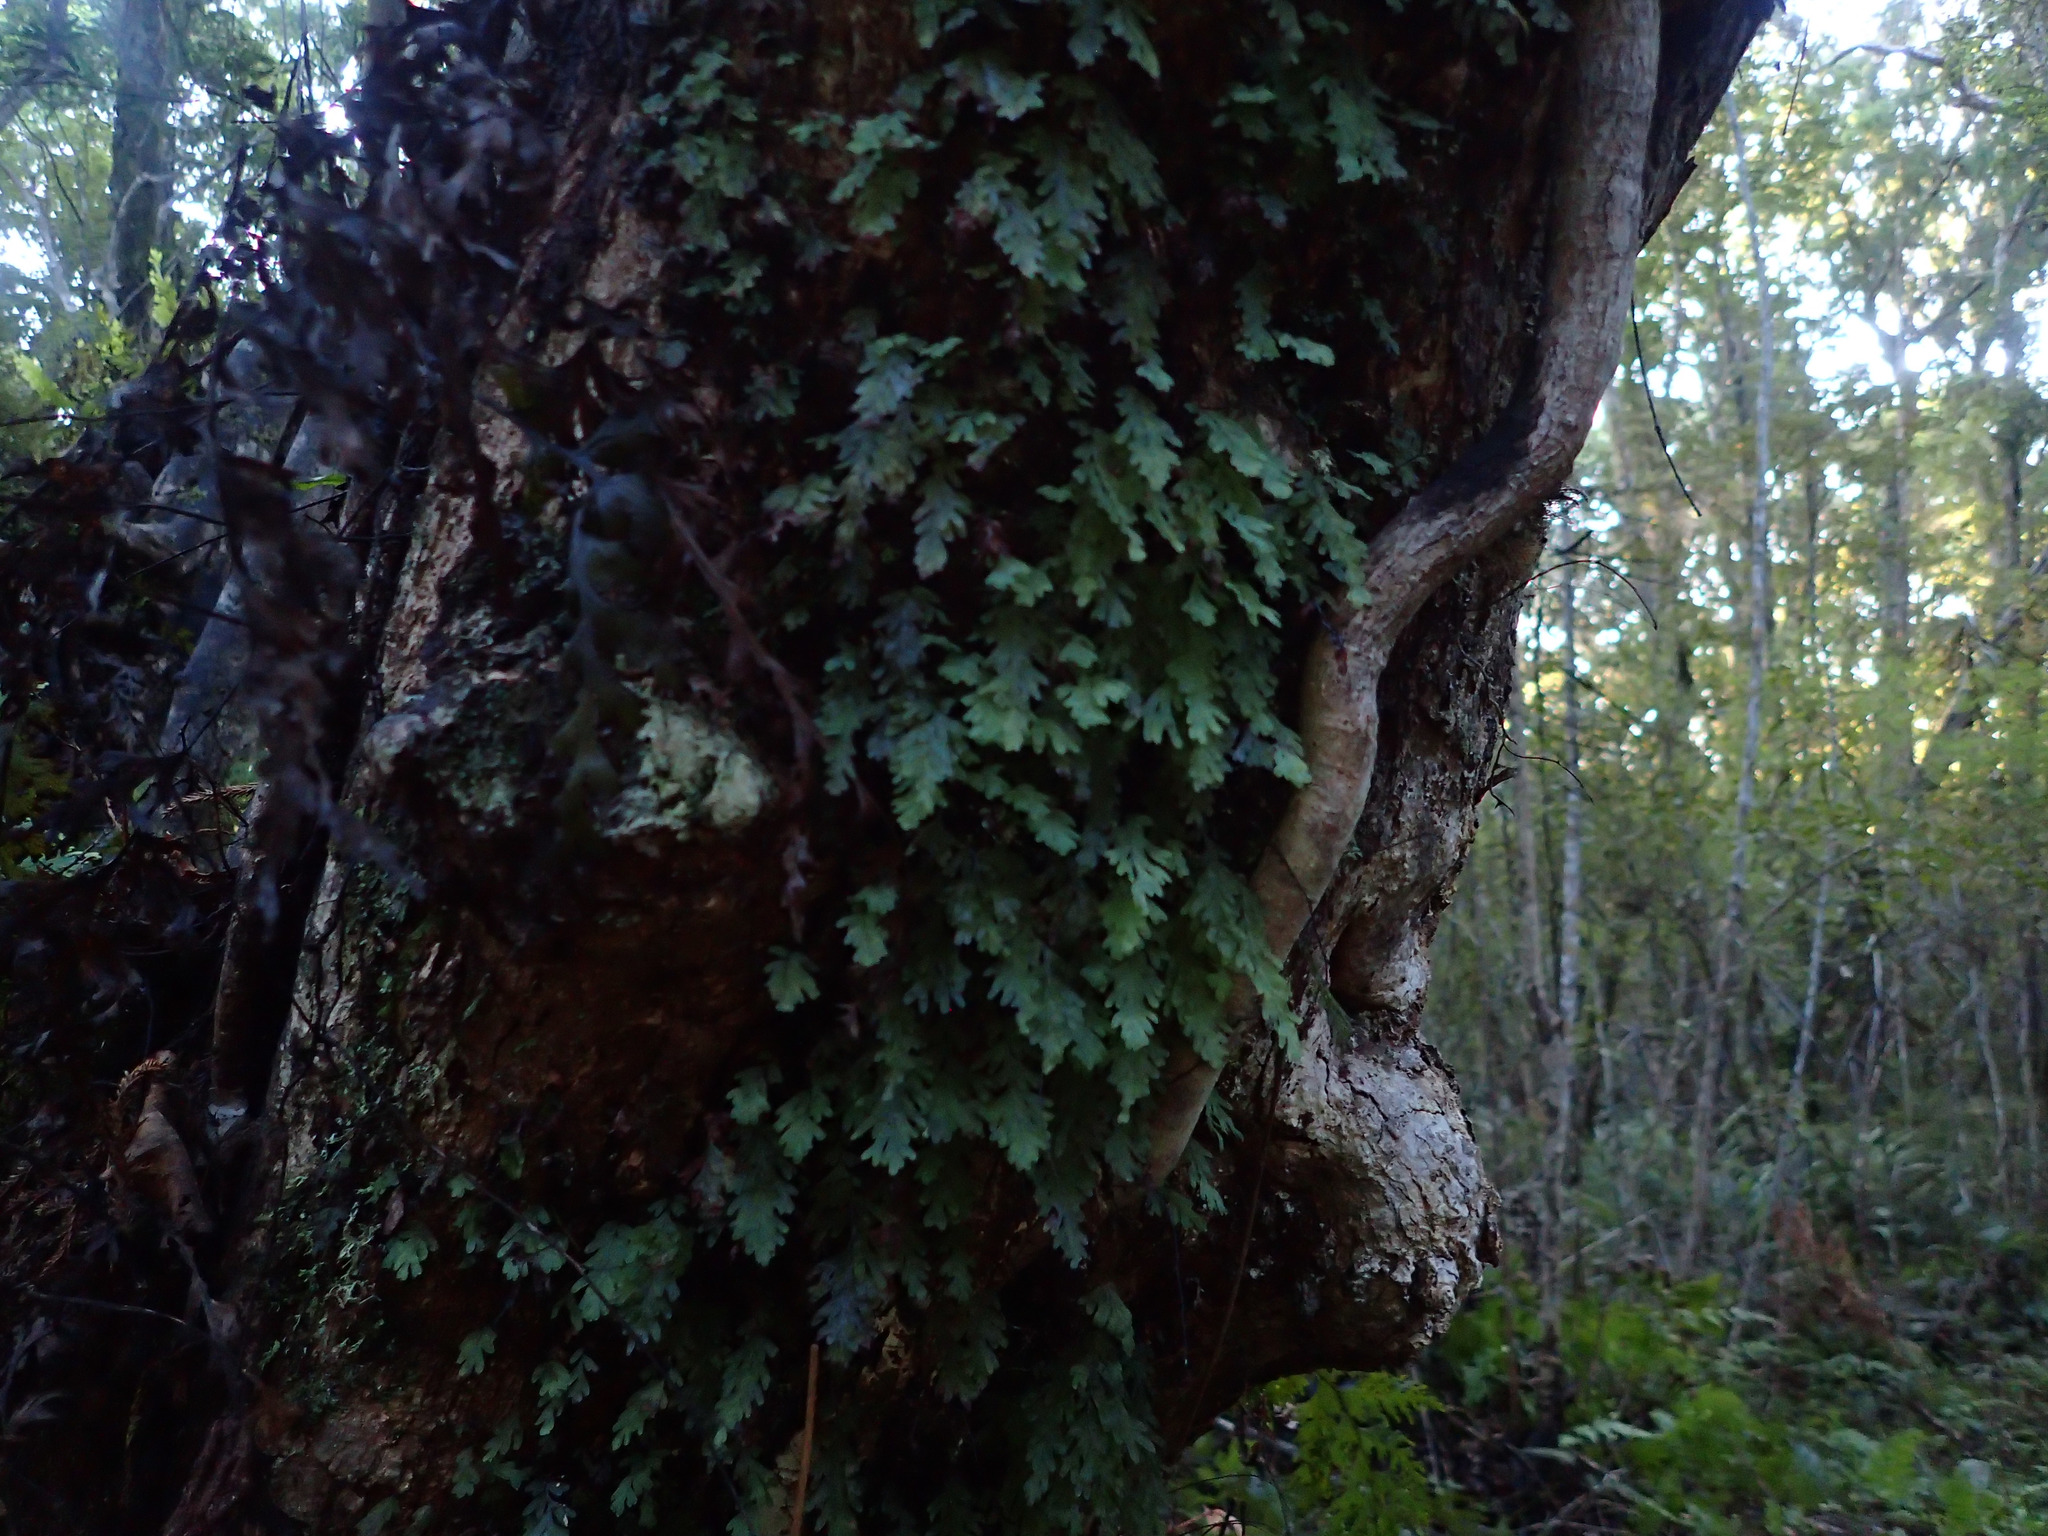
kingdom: Plantae
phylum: Tracheophyta
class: Polypodiopsida
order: Hymenophyllales
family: Hymenophyllaceae
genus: Hymenophyllum
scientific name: Hymenophyllum rarum
